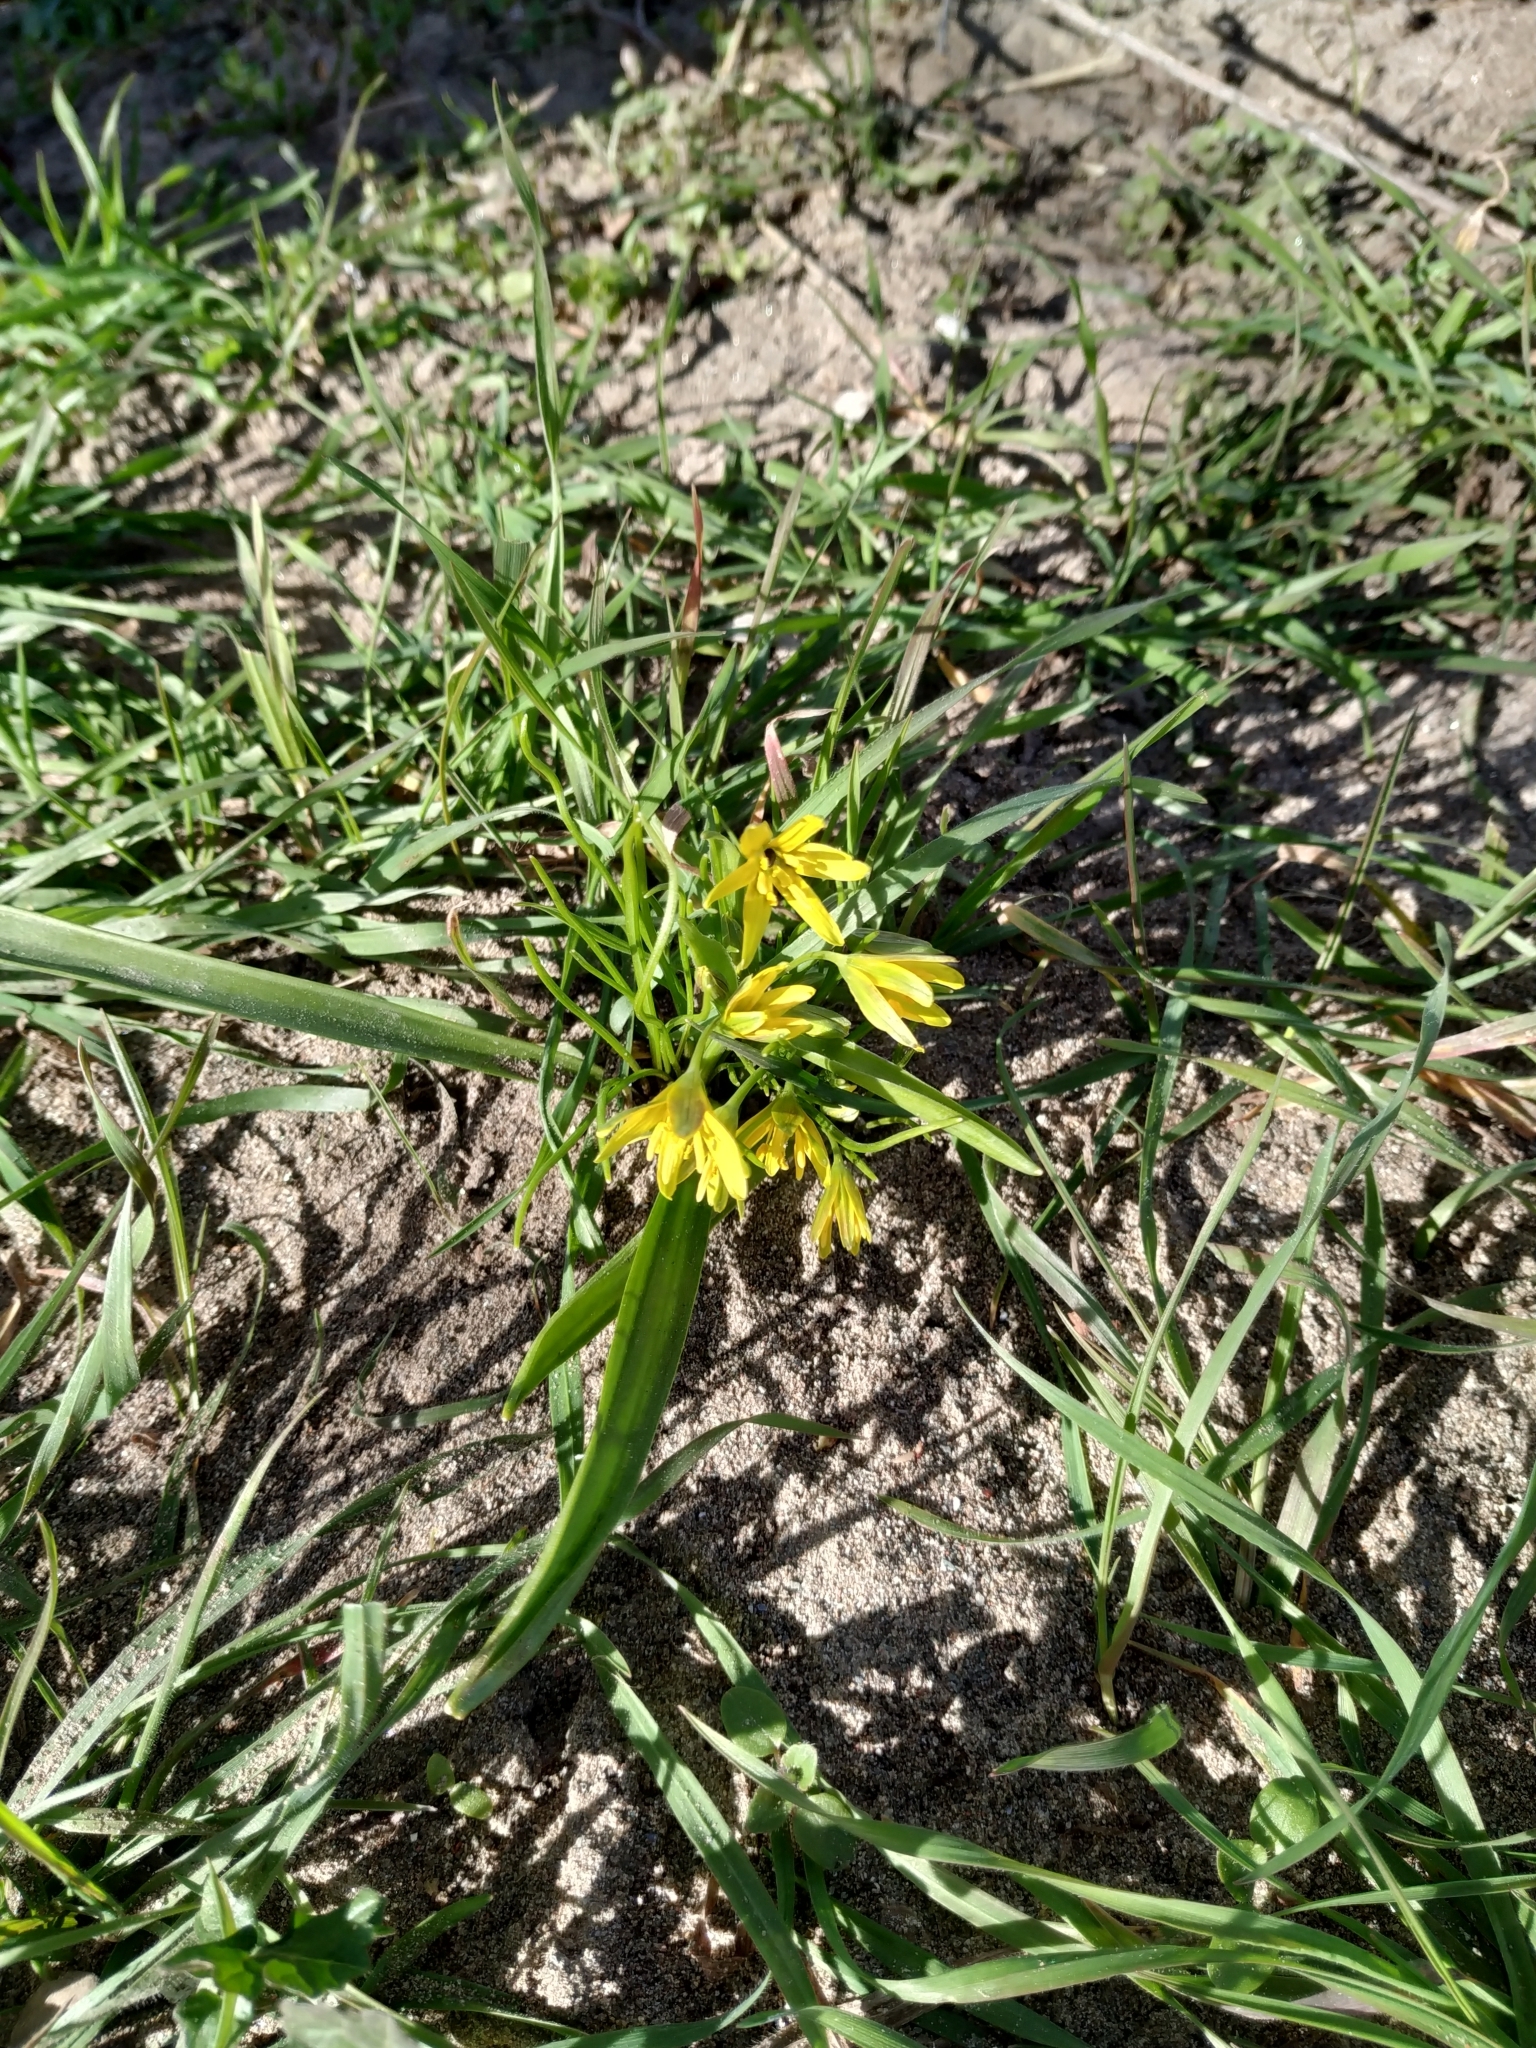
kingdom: Plantae
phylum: Tracheophyta
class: Liliopsida
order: Liliales
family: Liliaceae
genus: Gagea
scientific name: Gagea lutea
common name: Yellow star-of-bethlehem
